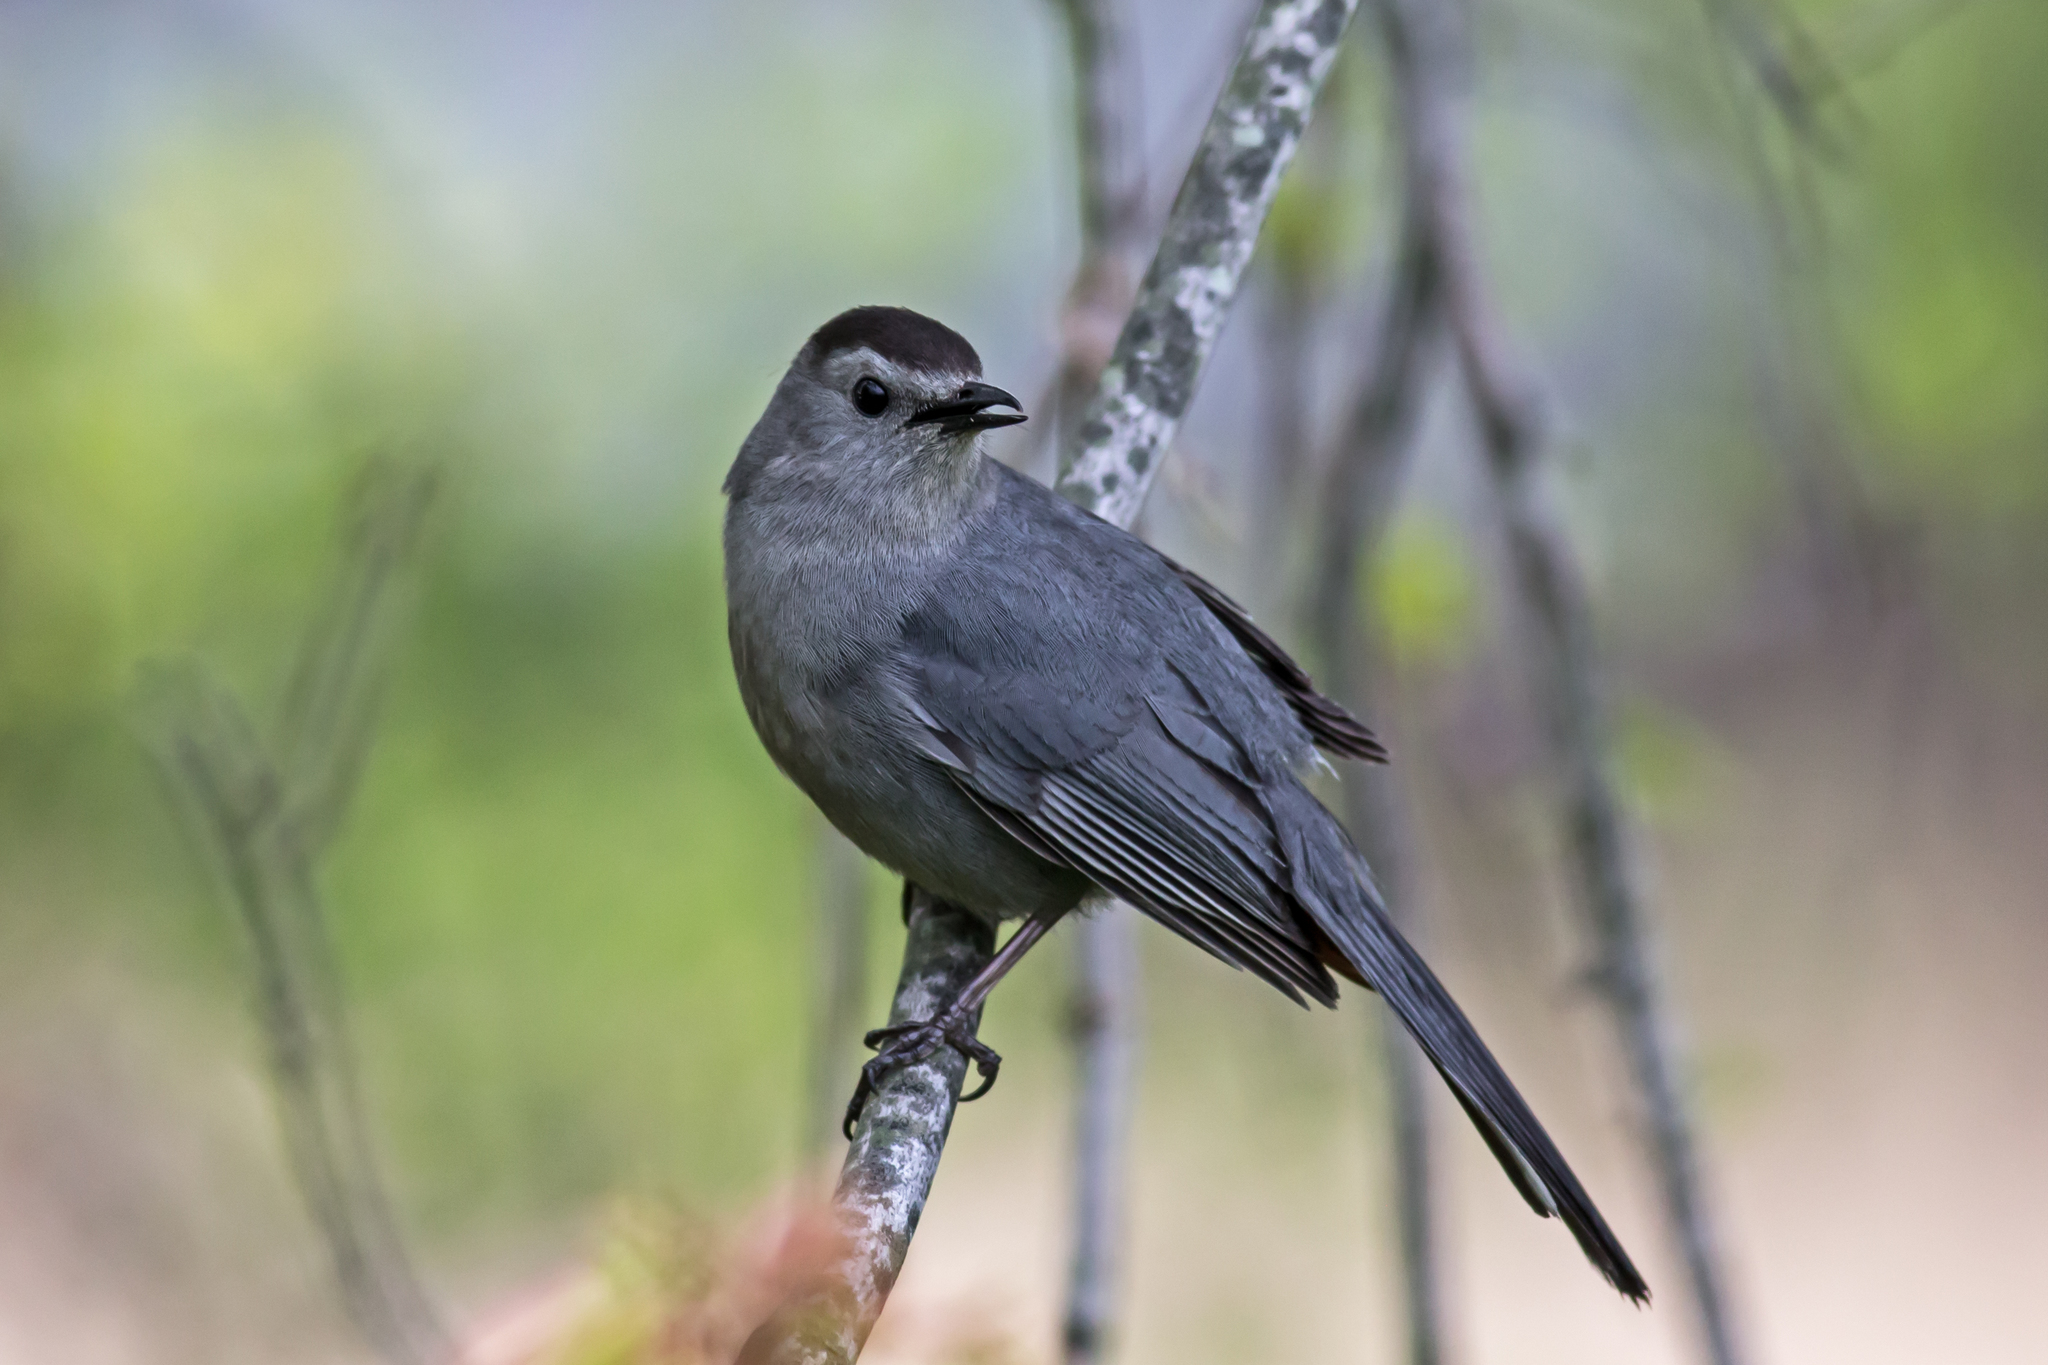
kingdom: Animalia
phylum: Chordata
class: Aves
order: Passeriformes
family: Mimidae
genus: Dumetella
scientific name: Dumetella carolinensis
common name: Gray catbird
